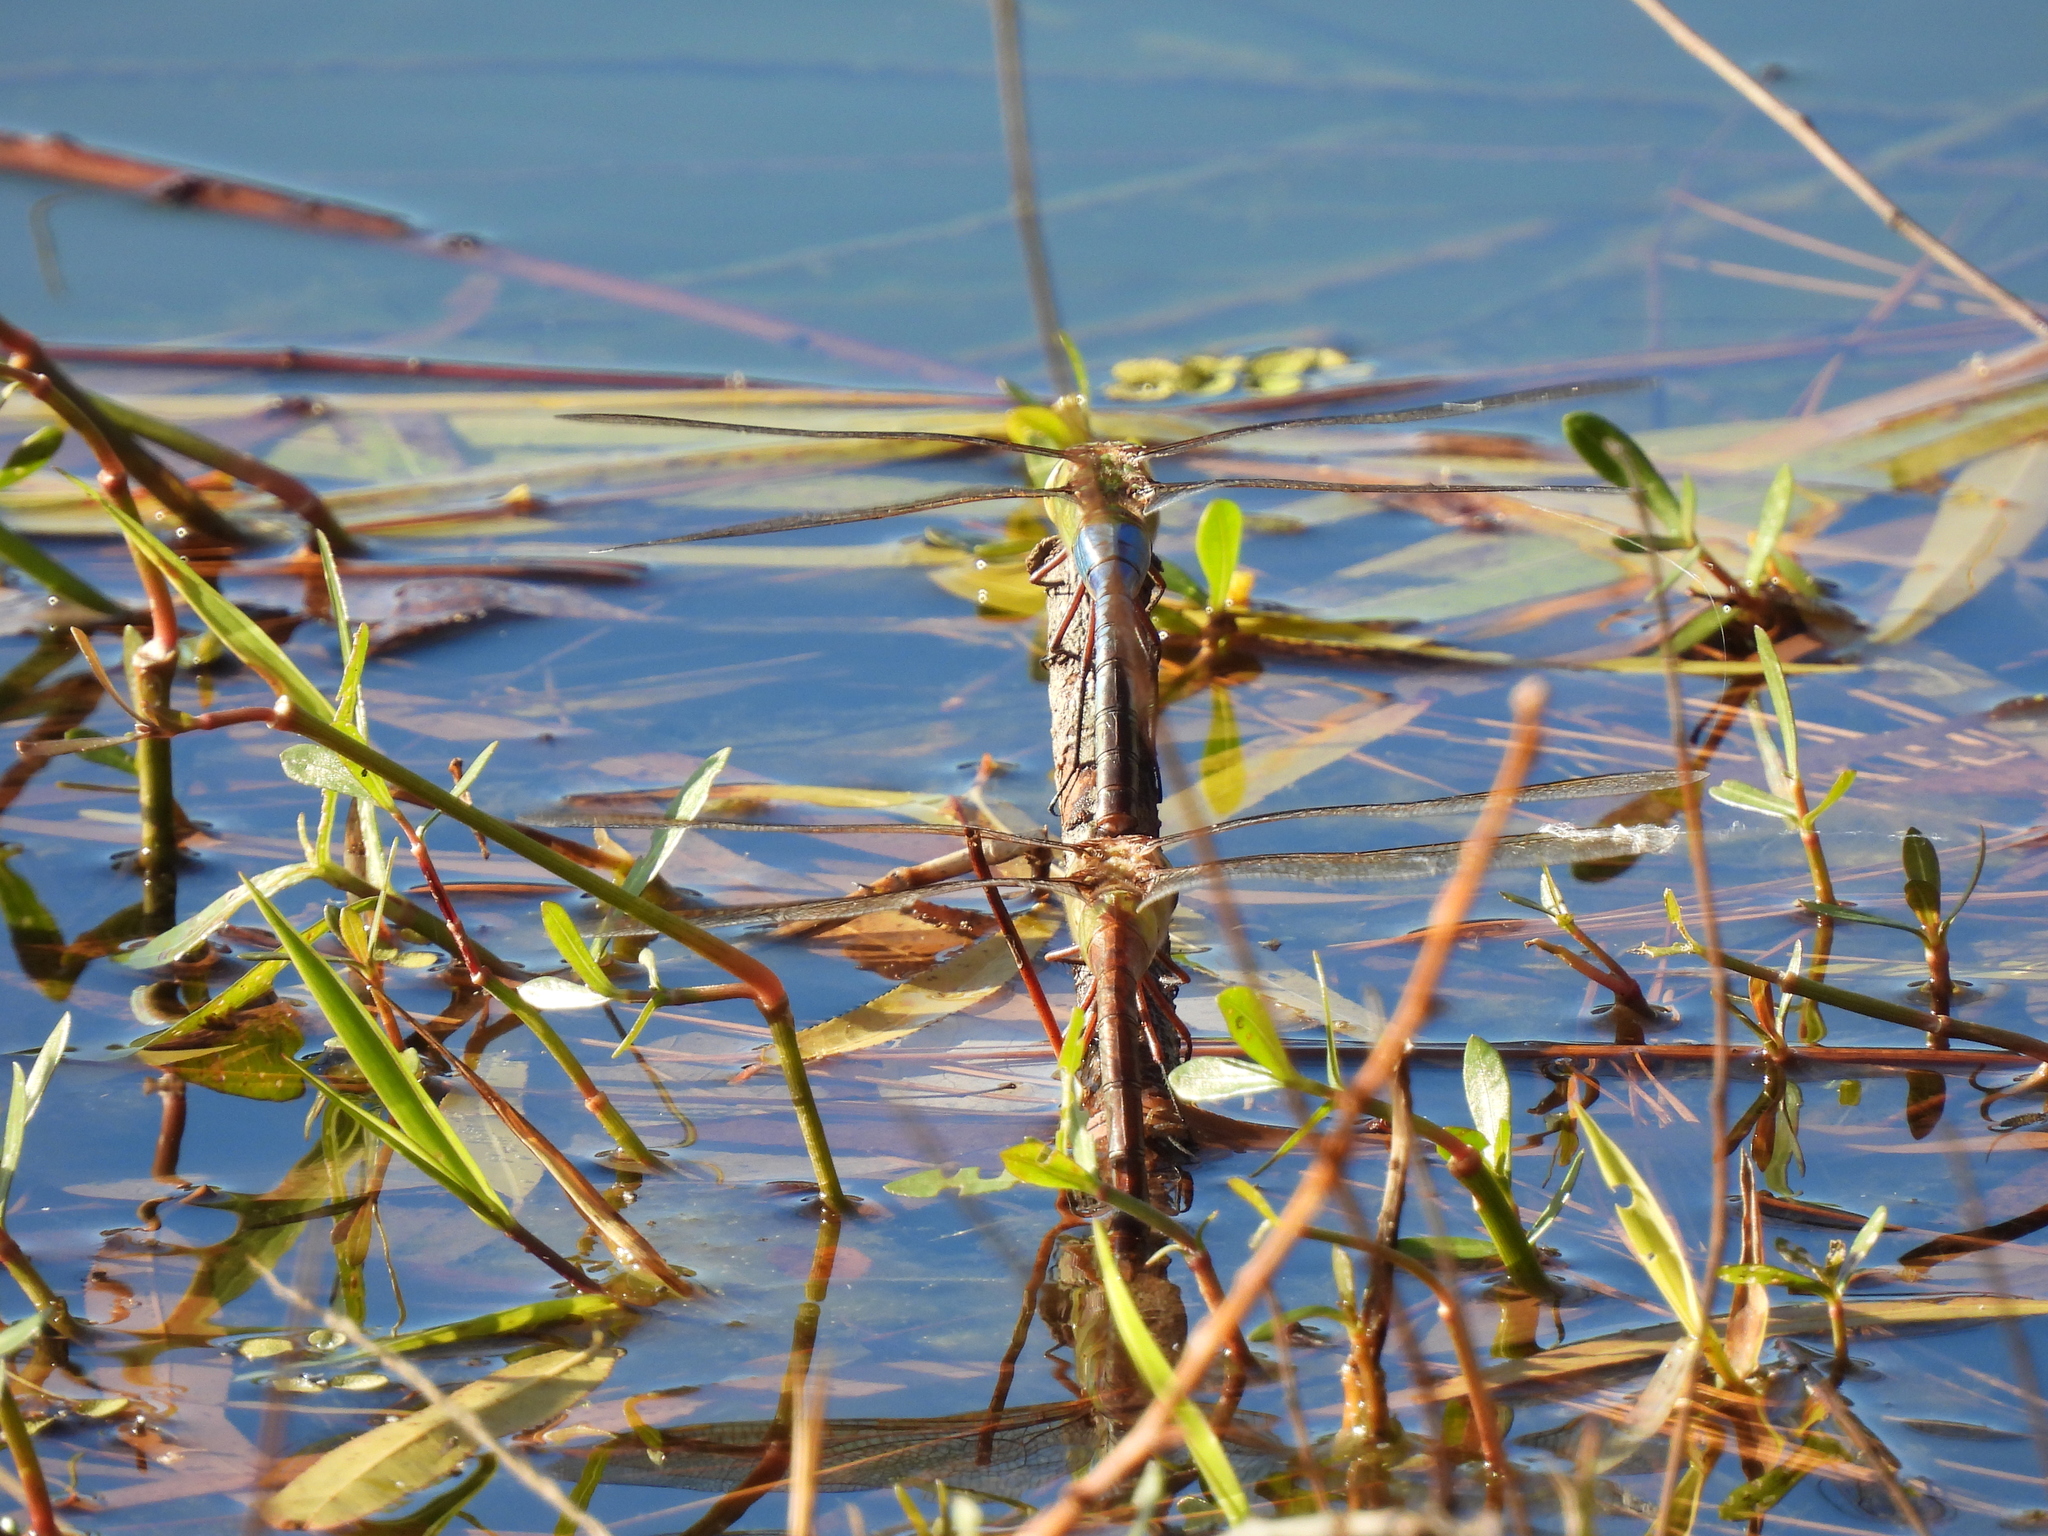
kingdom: Animalia
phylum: Arthropoda
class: Insecta
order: Odonata
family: Aeshnidae
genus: Anax
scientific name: Anax junius
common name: Common green darner
